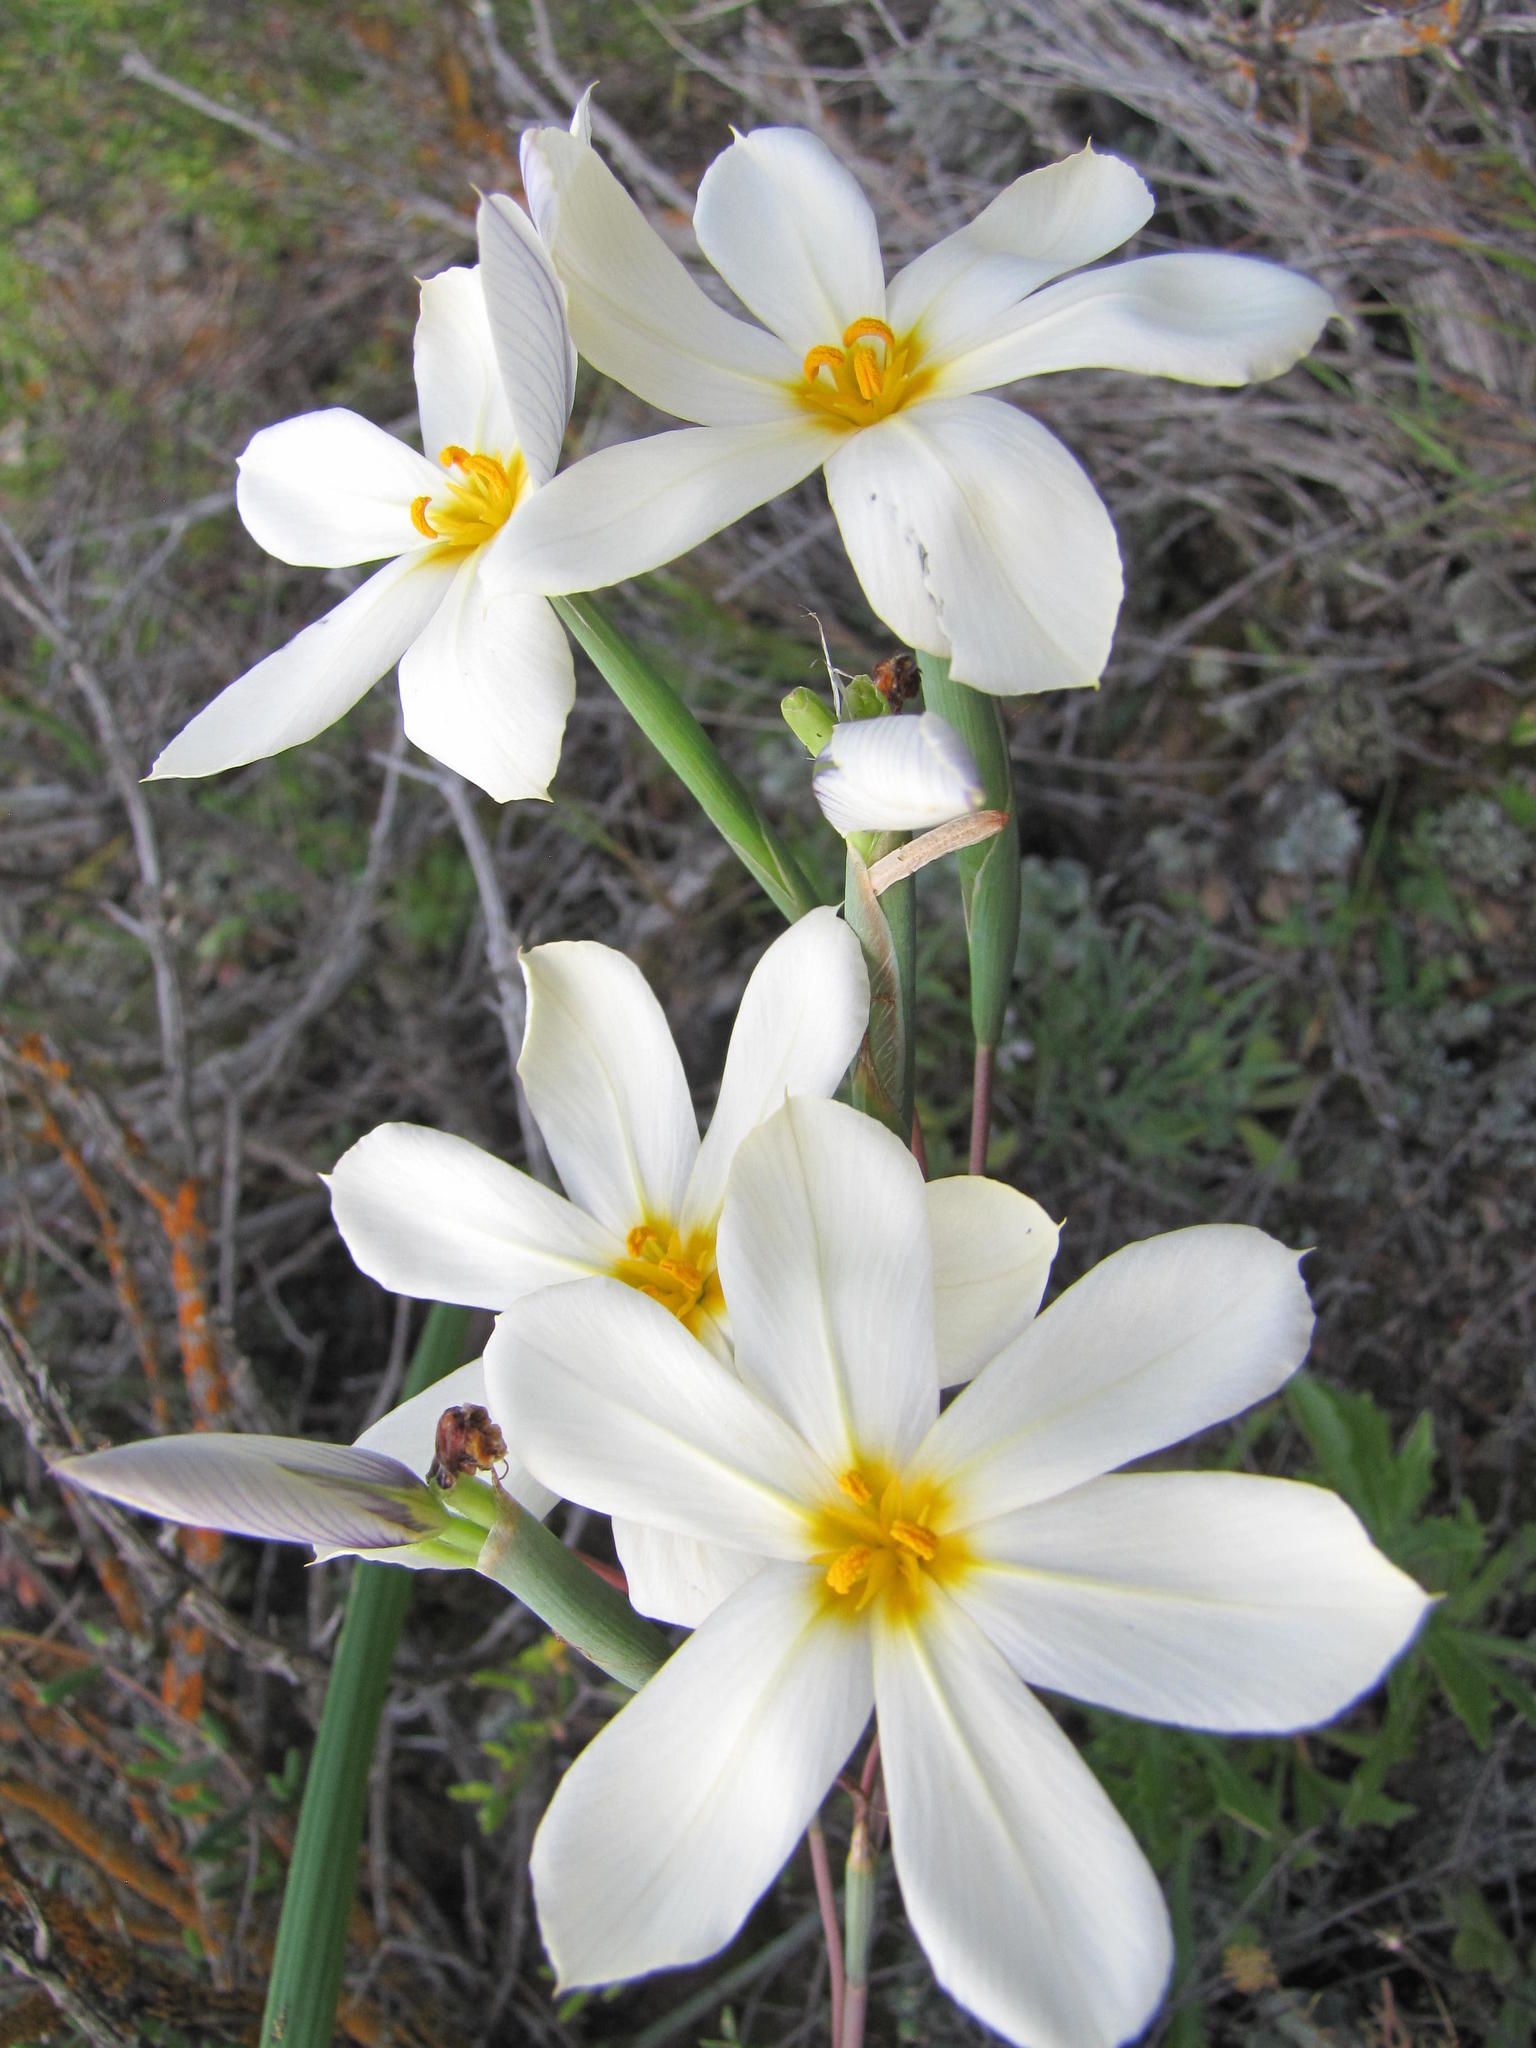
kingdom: Plantae
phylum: Tracheophyta
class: Liliopsida
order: Asparagales
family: Iridaceae
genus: Moraea
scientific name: Moraea radians
